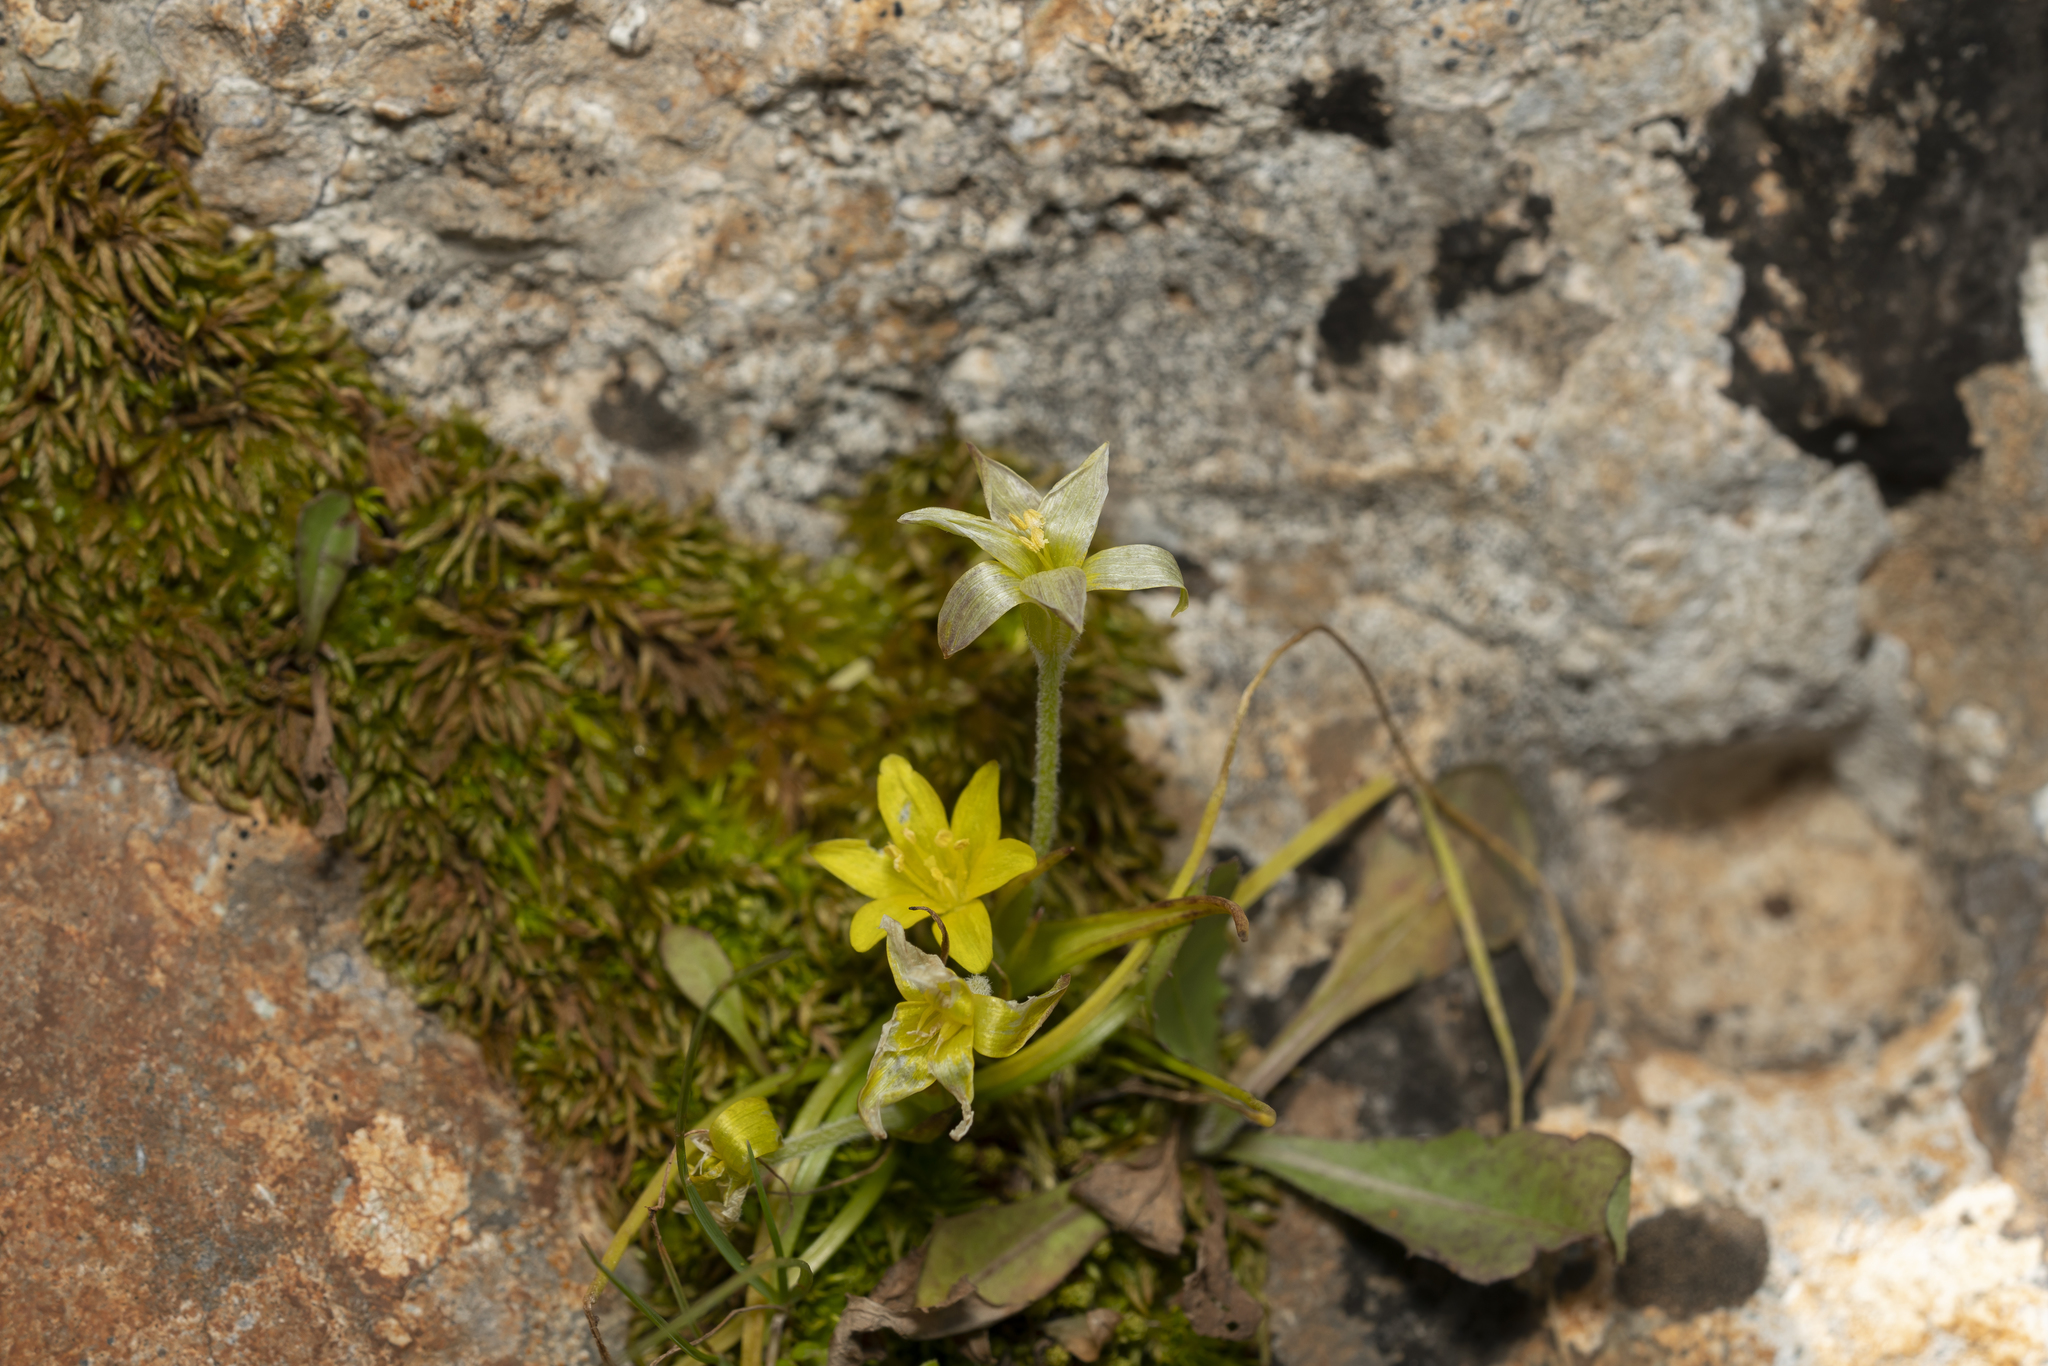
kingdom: Plantae
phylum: Tracheophyta
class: Liliopsida
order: Liliales
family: Liliaceae
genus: Gagea
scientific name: Gagea peduncularis
